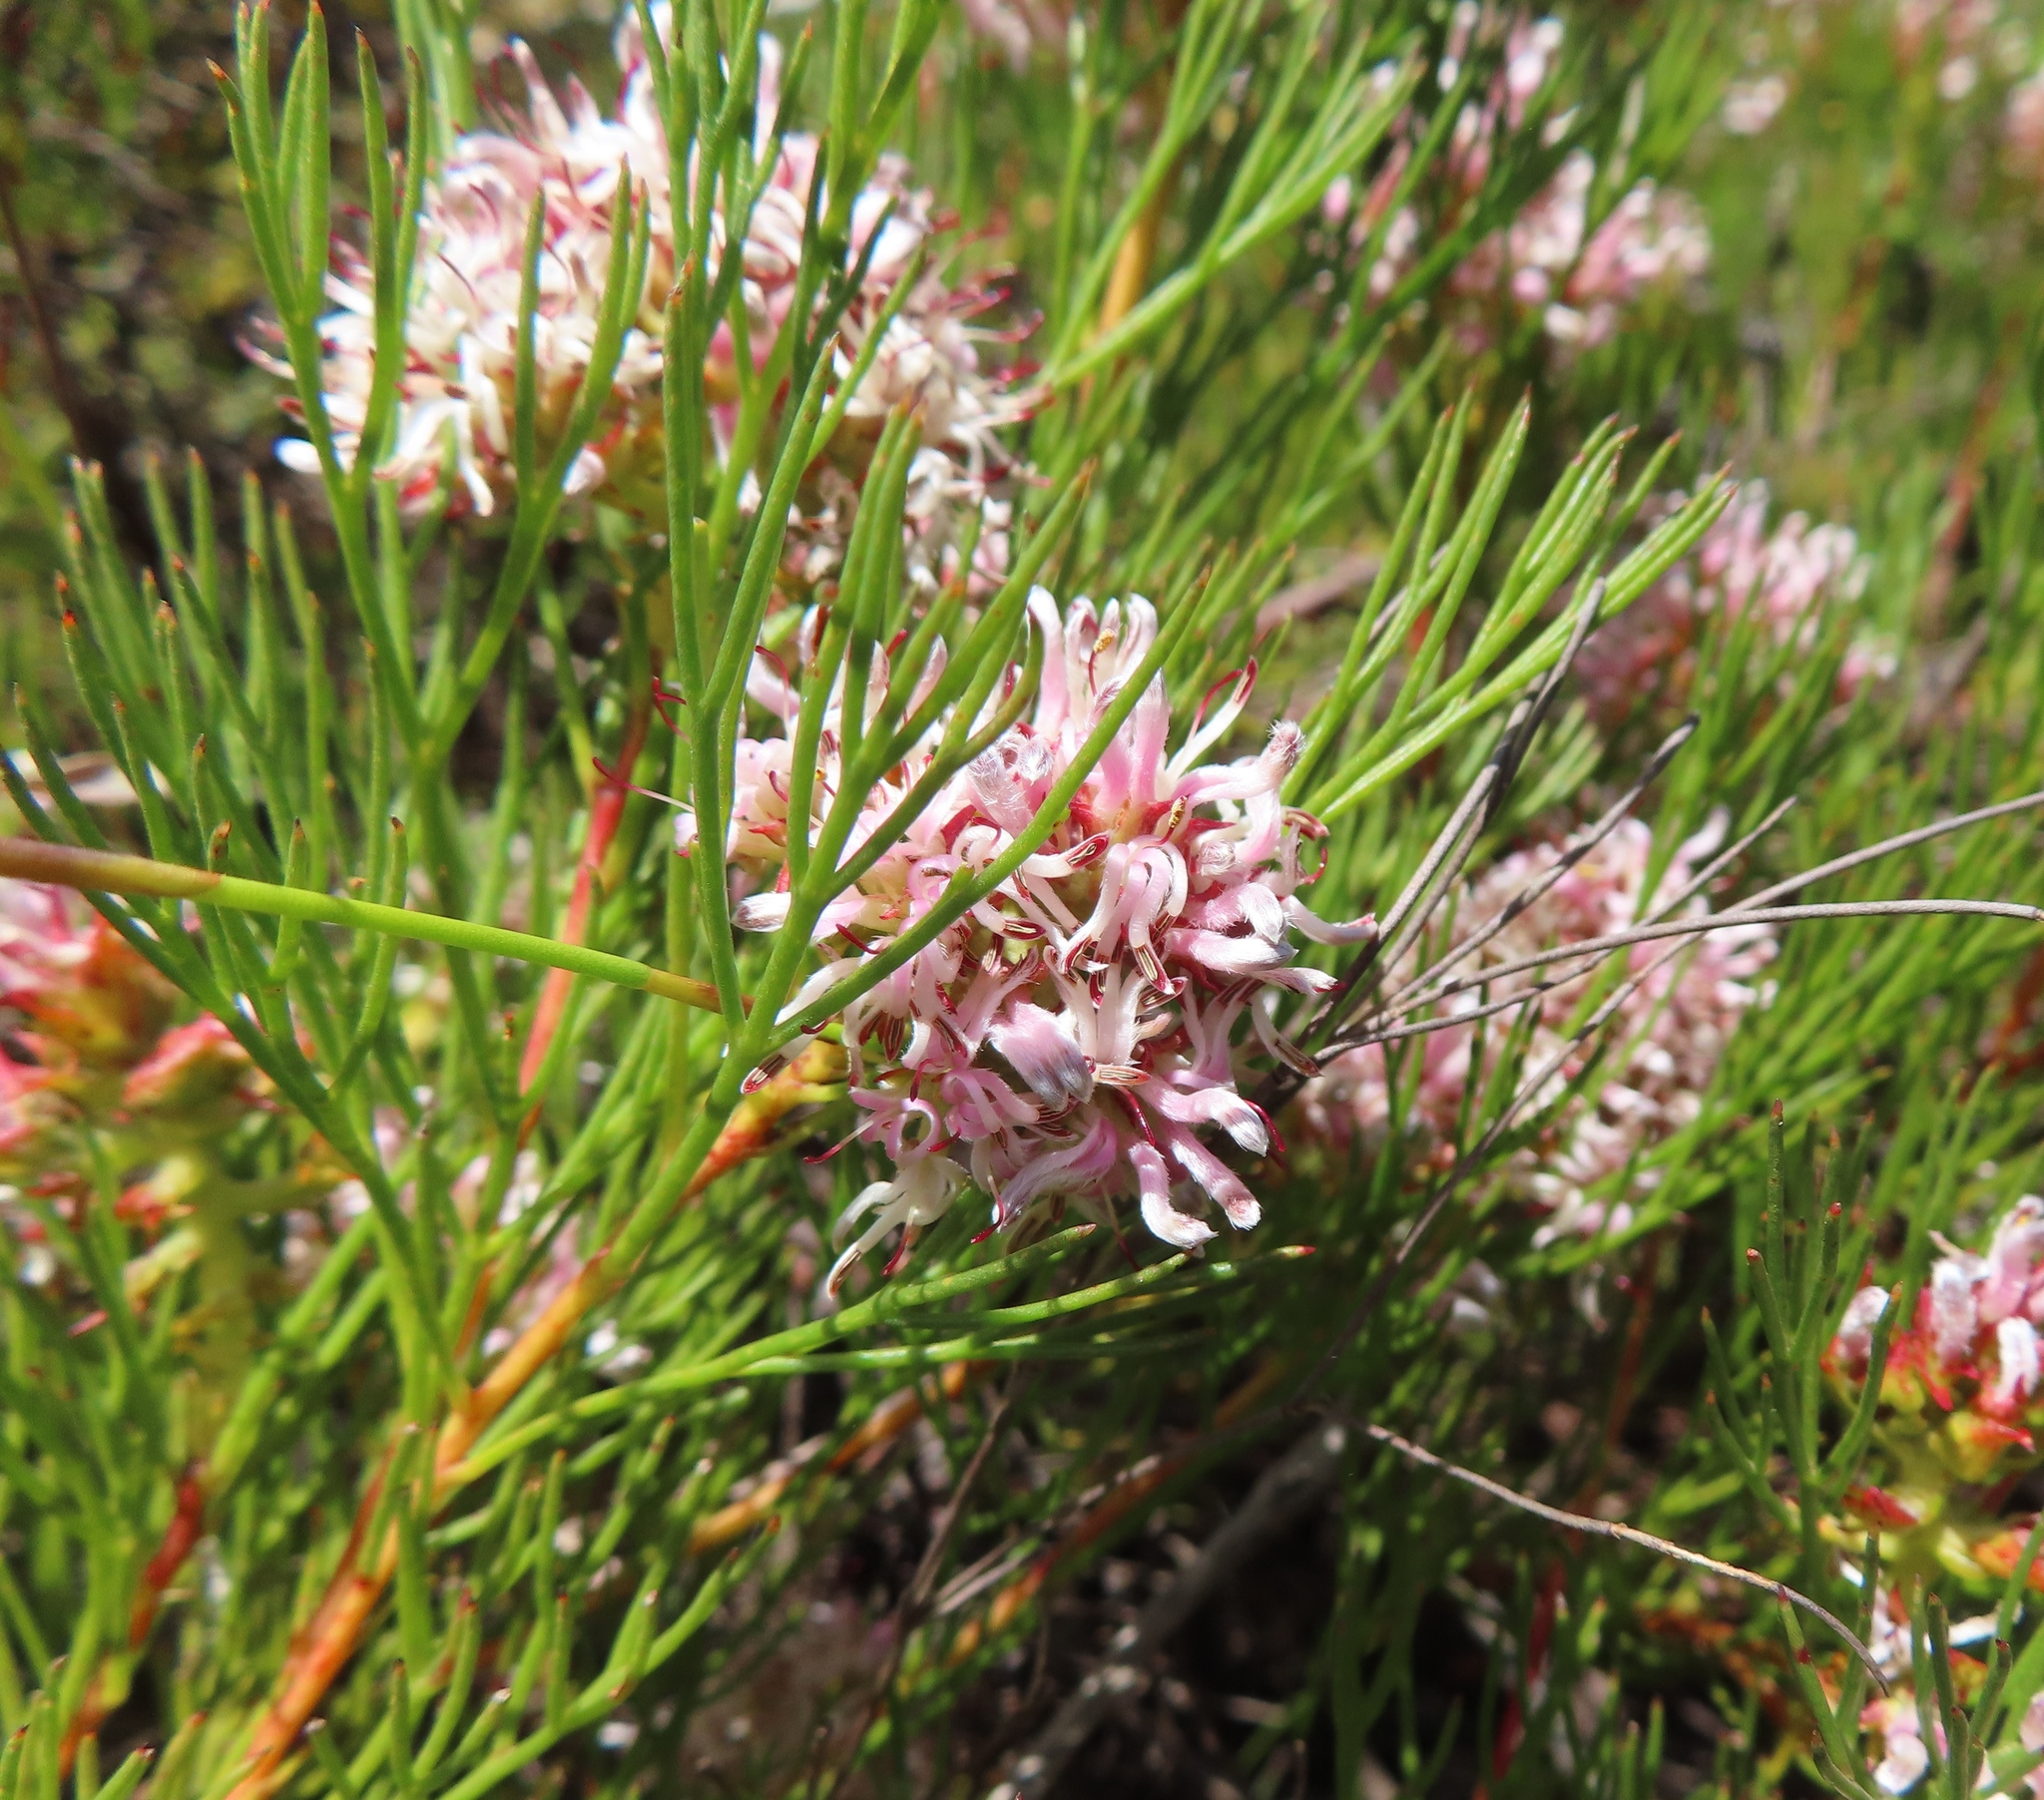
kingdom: Plantae
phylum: Tracheophyta
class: Magnoliopsida
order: Proteales
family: Proteaceae
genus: Serruria
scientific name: Serruria rubricaulis
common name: Red-stem spiderhead
